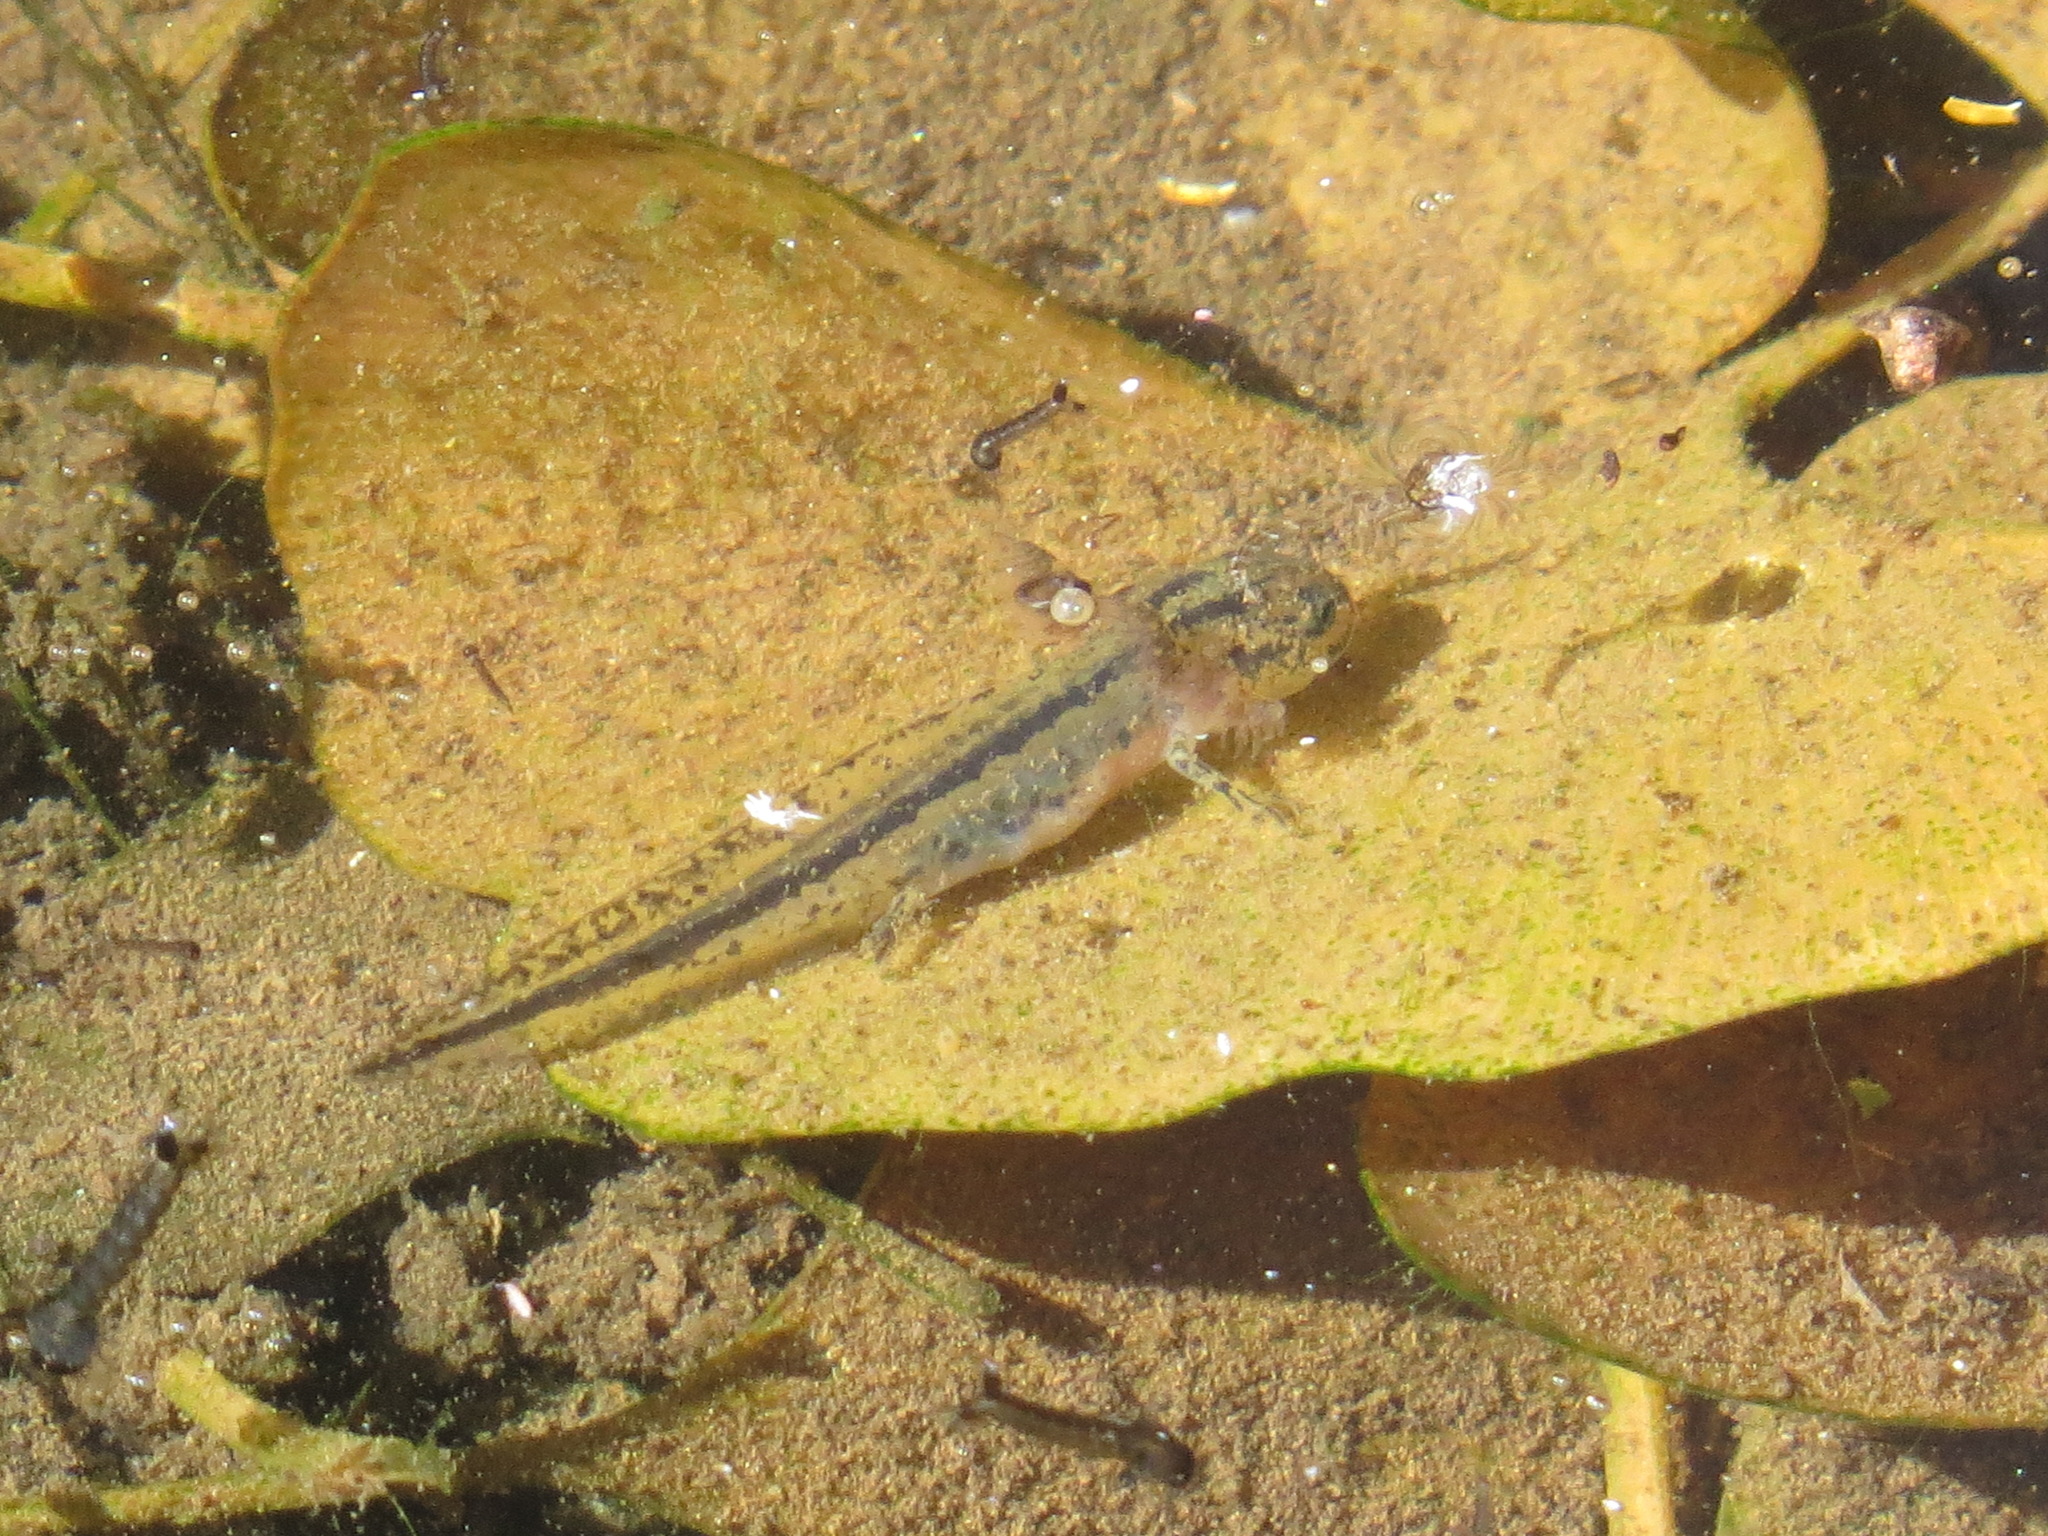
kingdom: Animalia
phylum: Chordata
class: Amphibia
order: Caudata
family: Salamandridae
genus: Taricha
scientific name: Taricha torosa
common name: California newt
